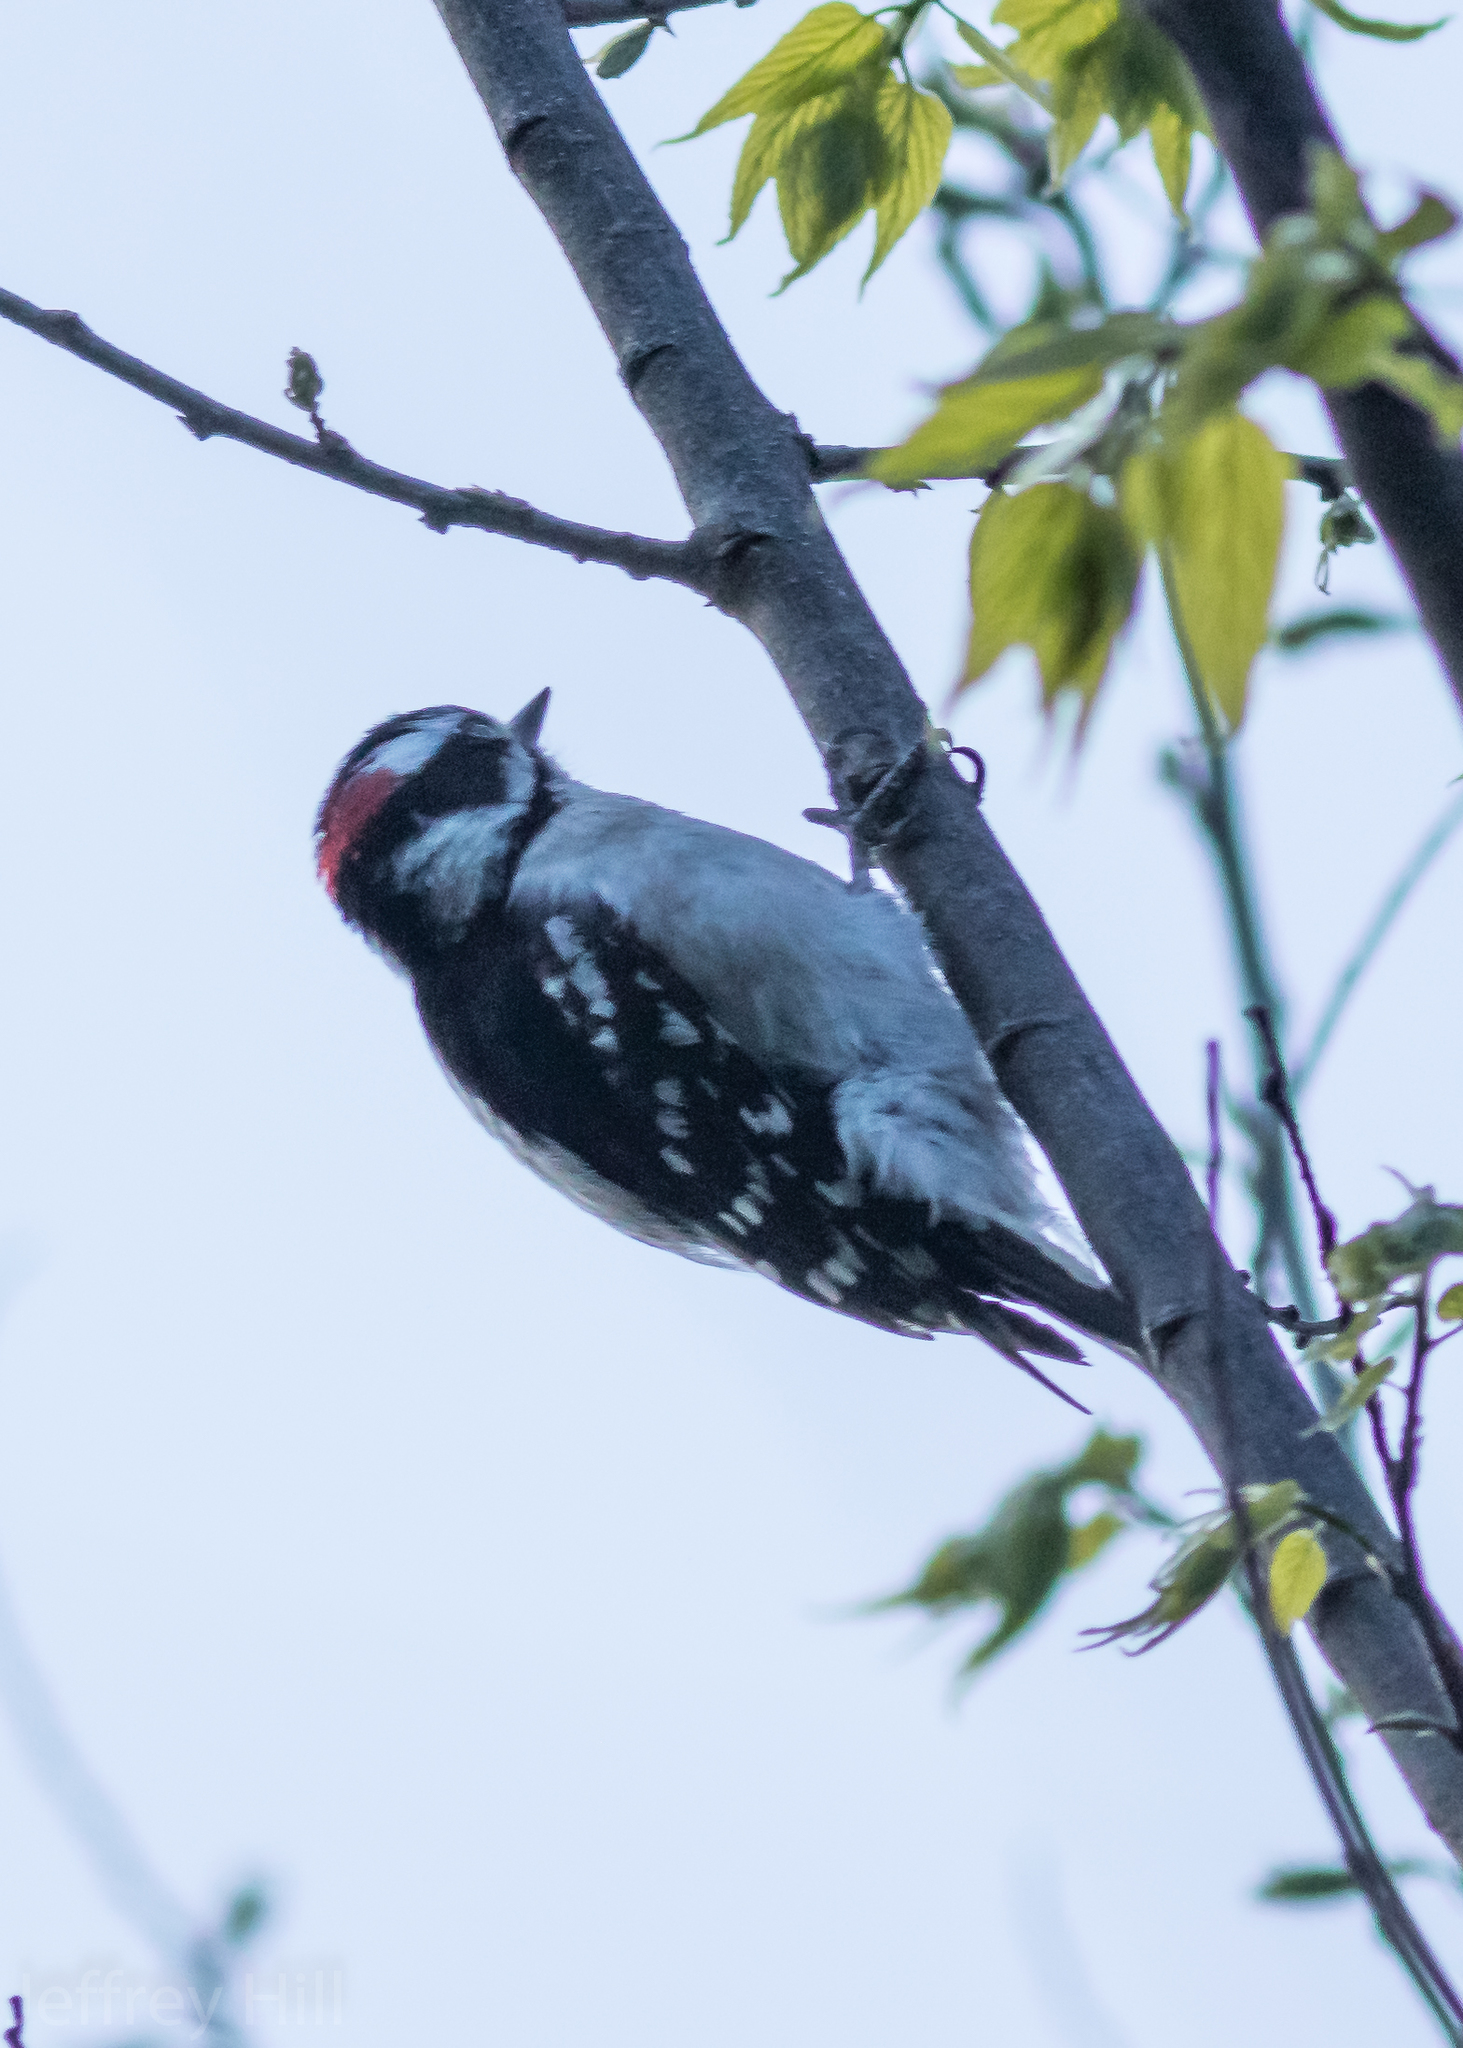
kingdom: Animalia
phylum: Chordata
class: Aves
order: Piciformes
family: Picidae
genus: Dryobates
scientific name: Dryobates pubescens
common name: Downy woodpecker
